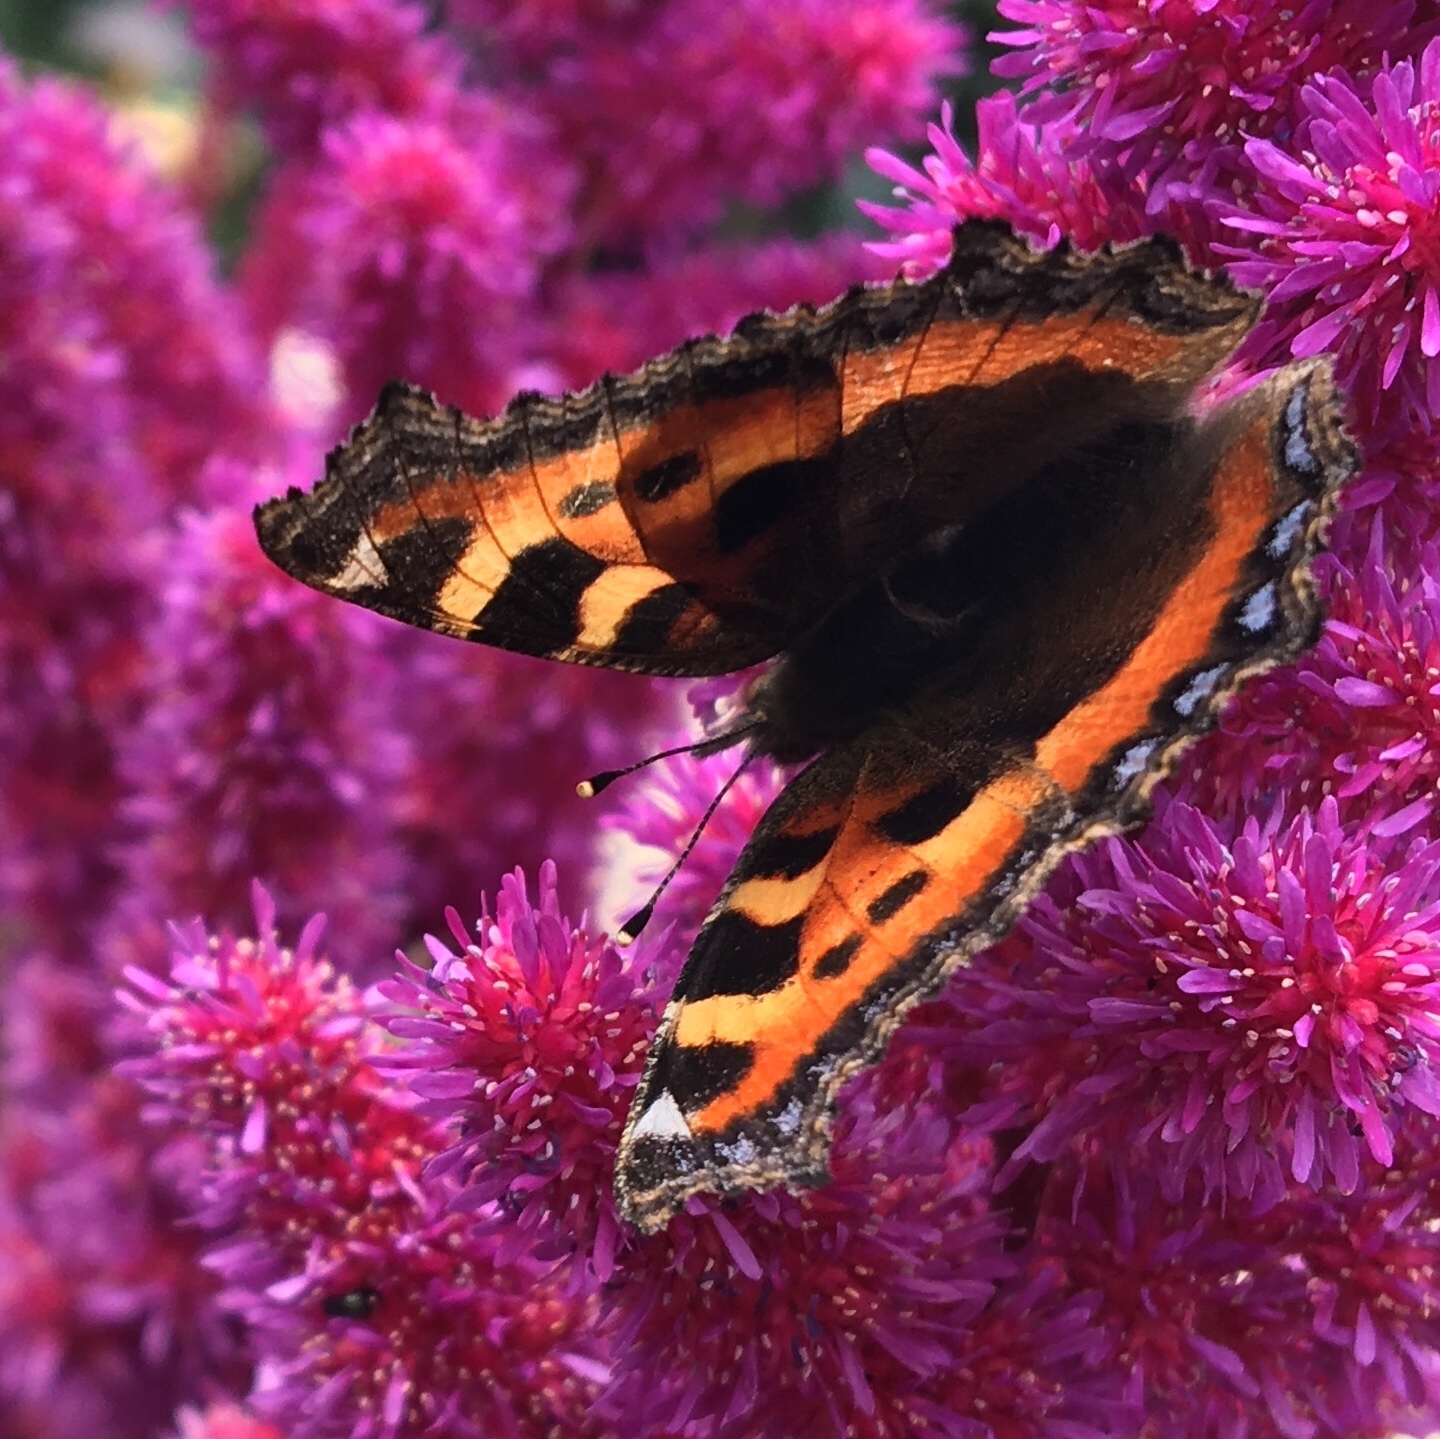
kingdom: Animalia
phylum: Arthropoda
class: Insecta
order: Lepidoptera
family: Nymphalidae
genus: Aglais
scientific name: Aglais urticae
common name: Small tortoiseshell
